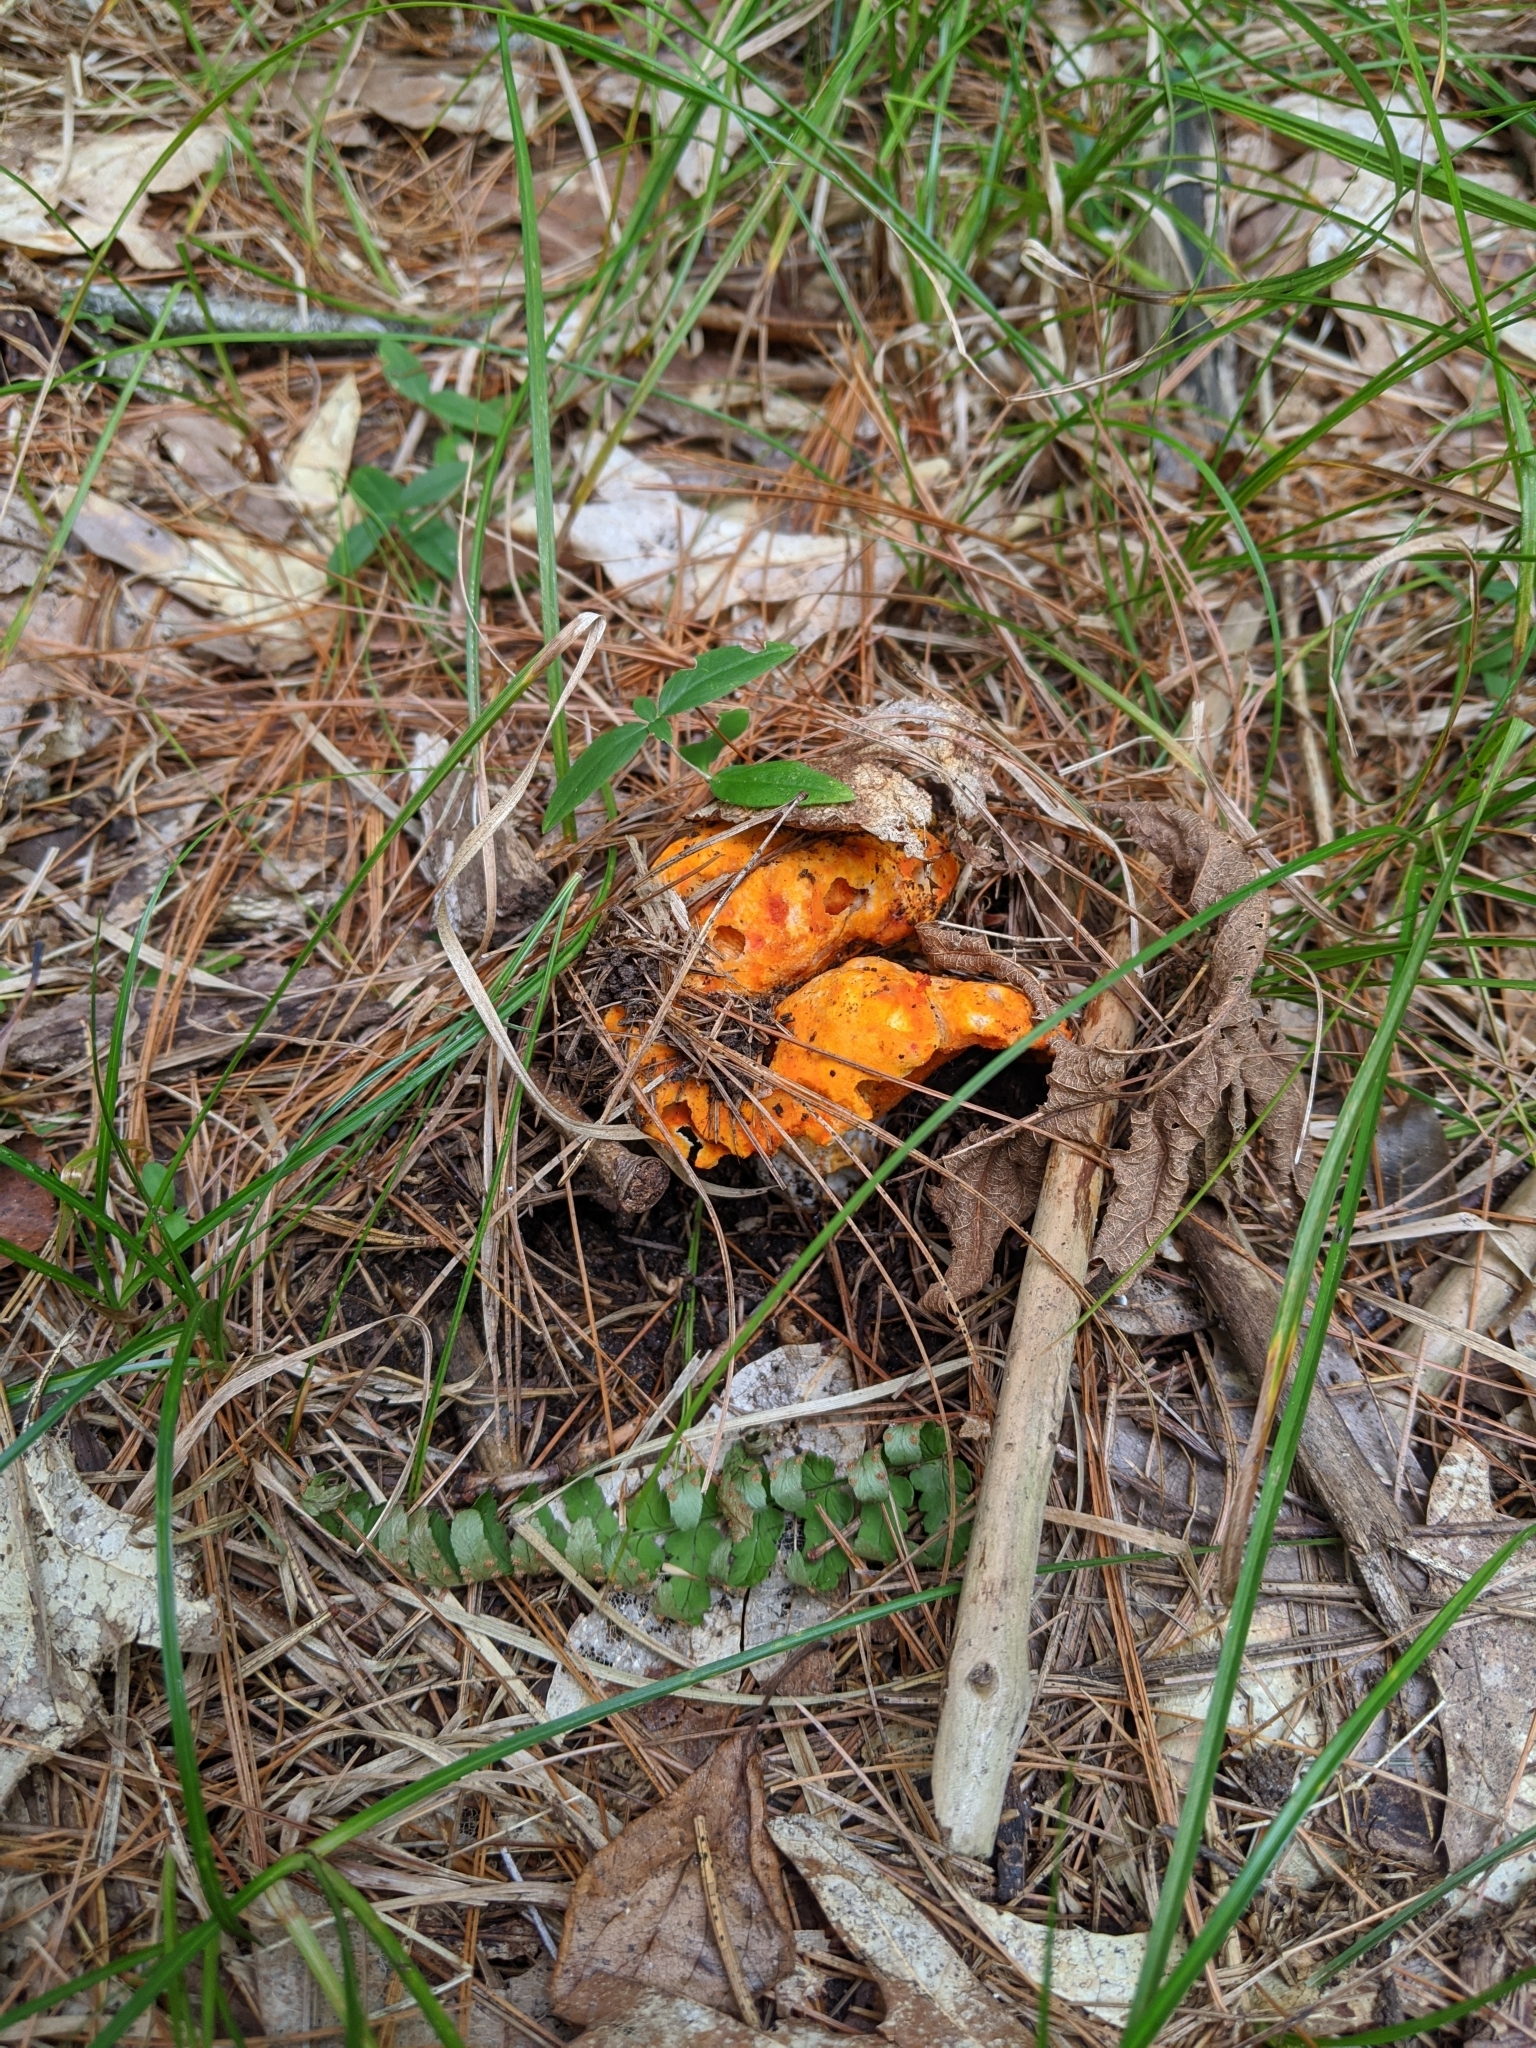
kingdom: Fungi
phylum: Ascomycota
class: Sordariomycetes
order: Hypocreales
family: Hypocreaceae
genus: Hypomyces
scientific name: Hypomyces lactifluorum
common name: Lobster mushroom
